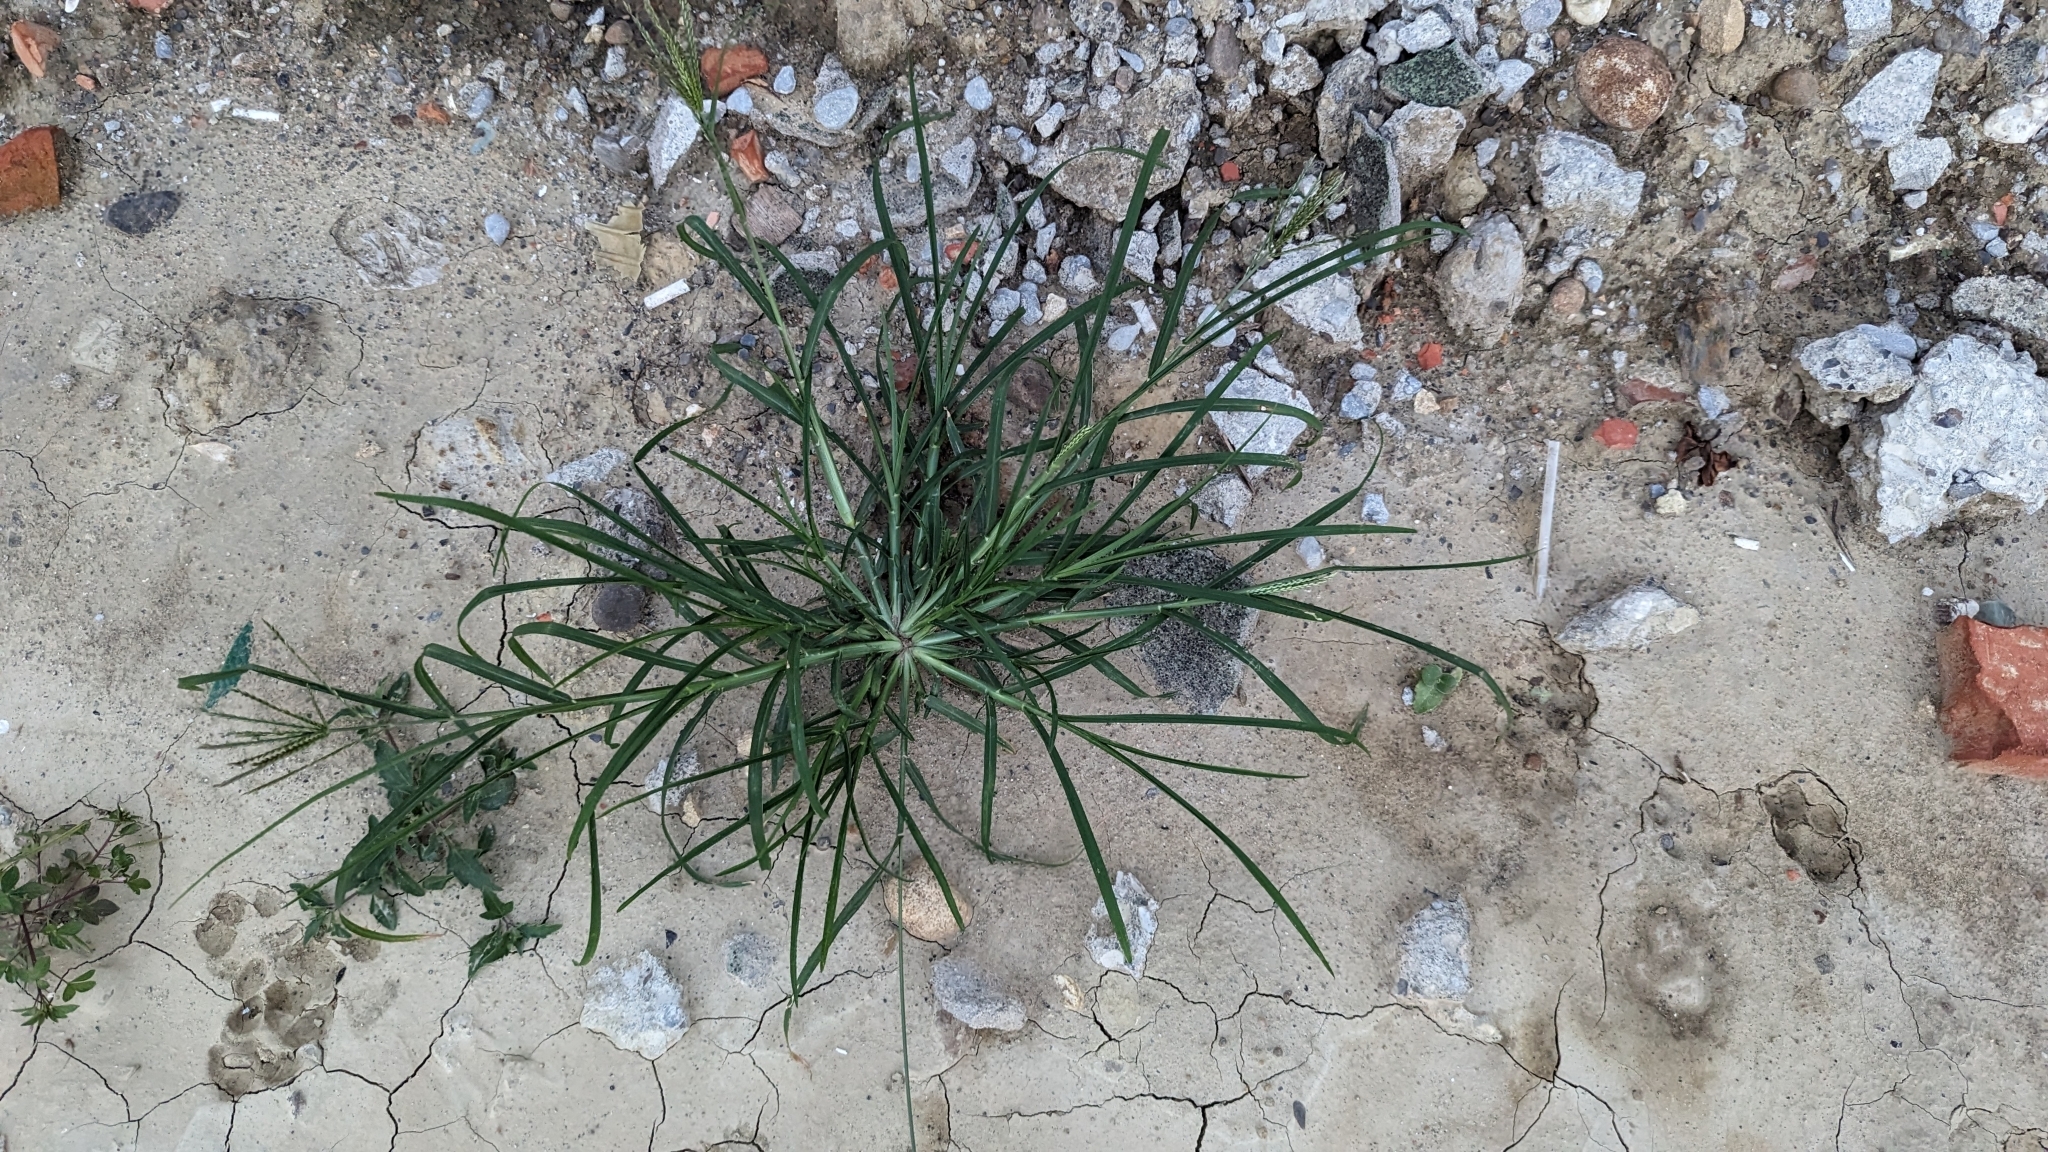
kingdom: Plantae
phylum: Tracheophyta
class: Liliopsida
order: Poales
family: Poaceae
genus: Eleusine
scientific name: Eleusine indica
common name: Yard-grass
